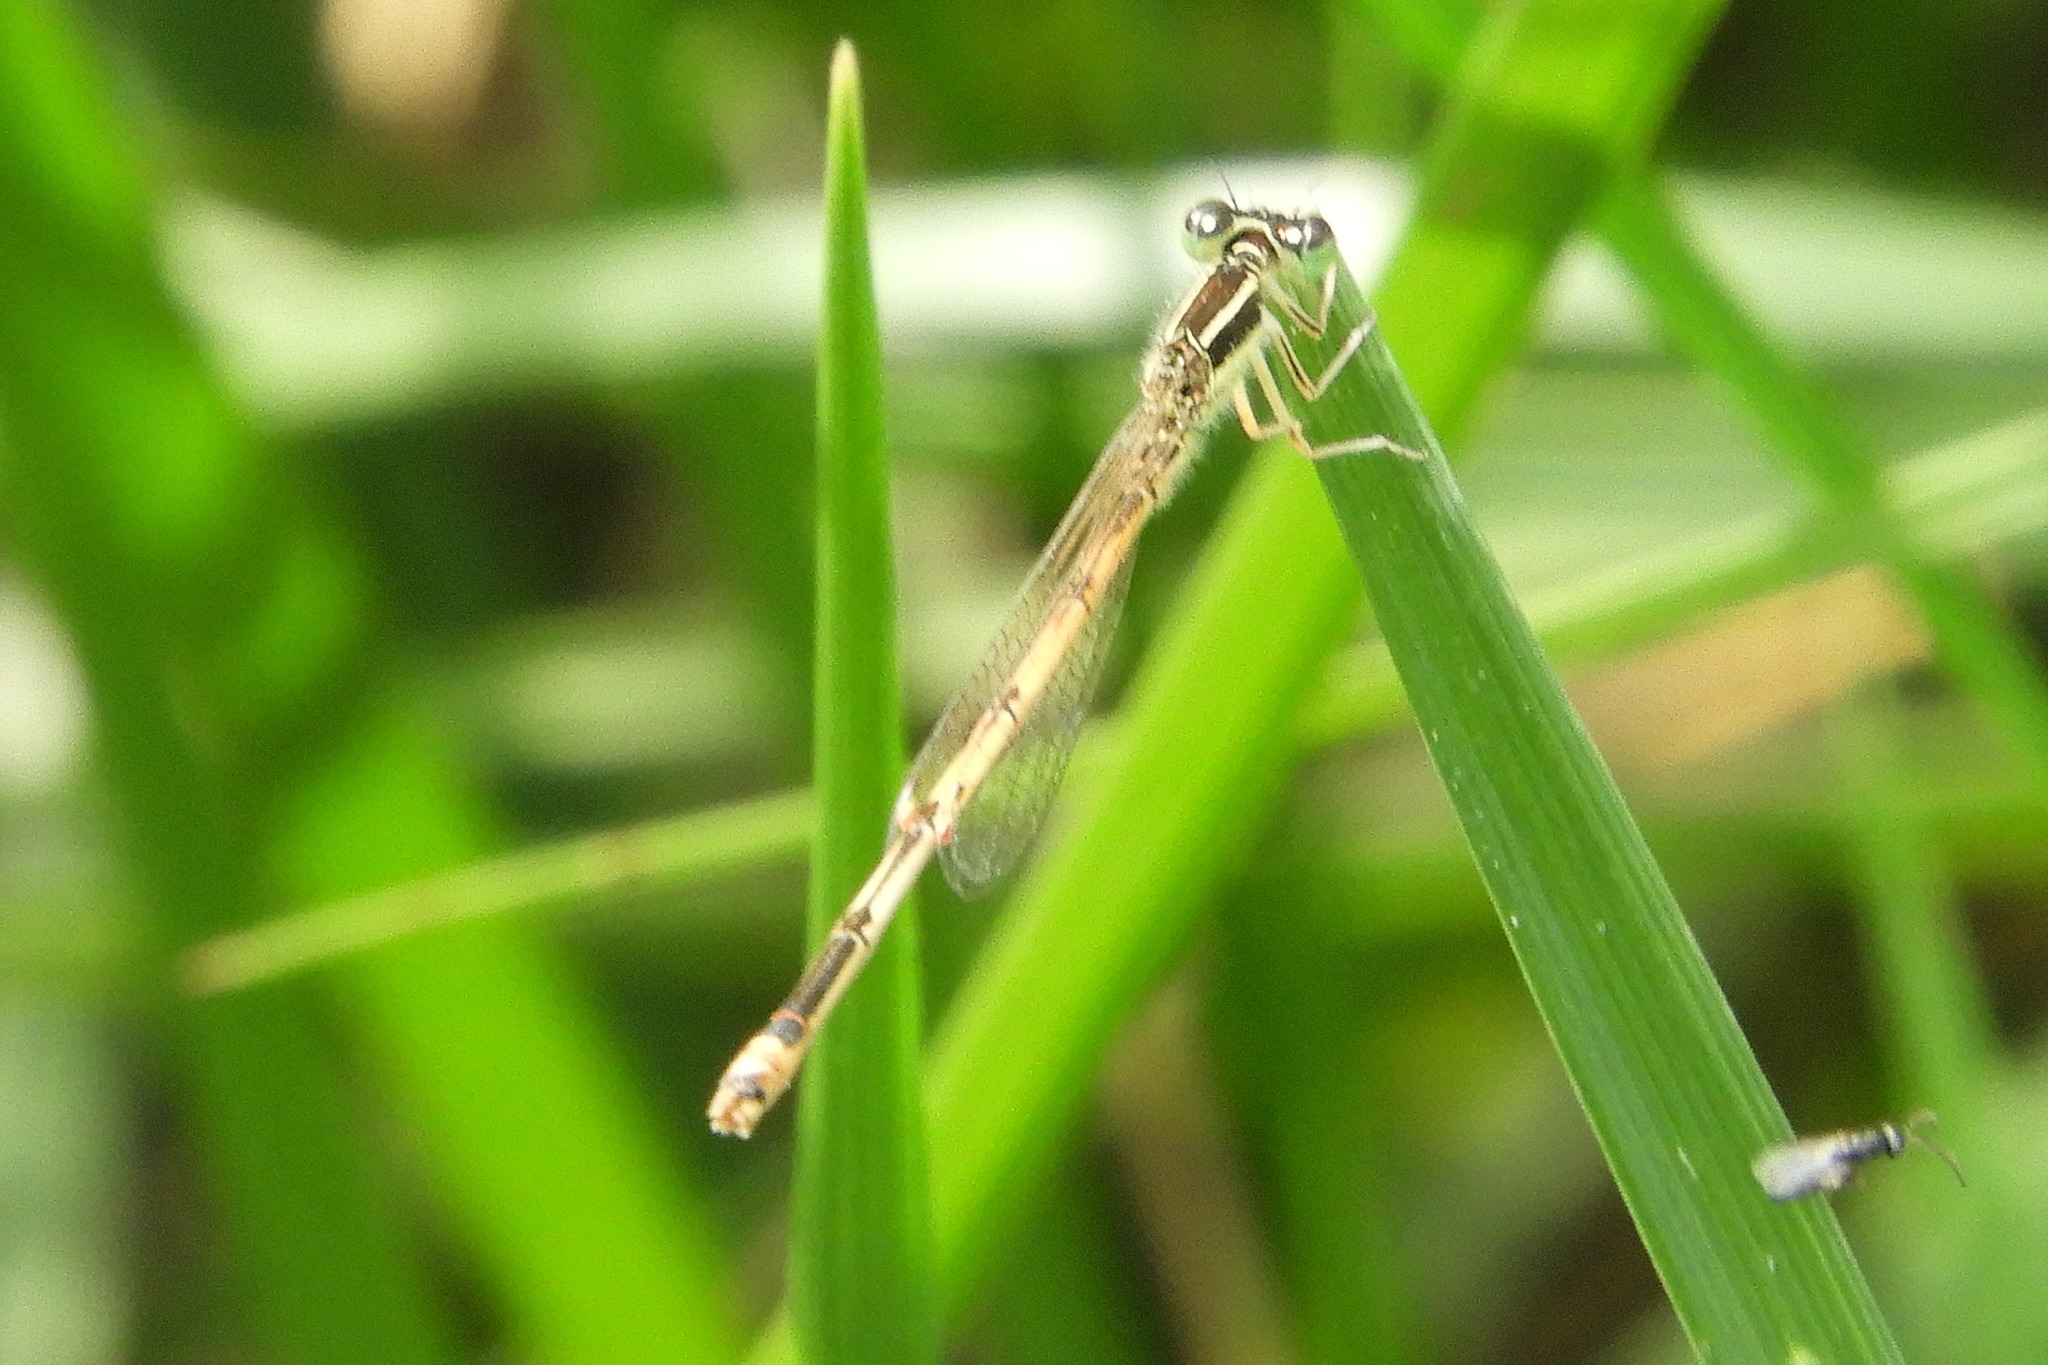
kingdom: Animalia
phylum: Arthropoda
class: Insecta
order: Odonata
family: Coenagrionidae
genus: Ischnura
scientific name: Ischnura hastata
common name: Citrine forktail
